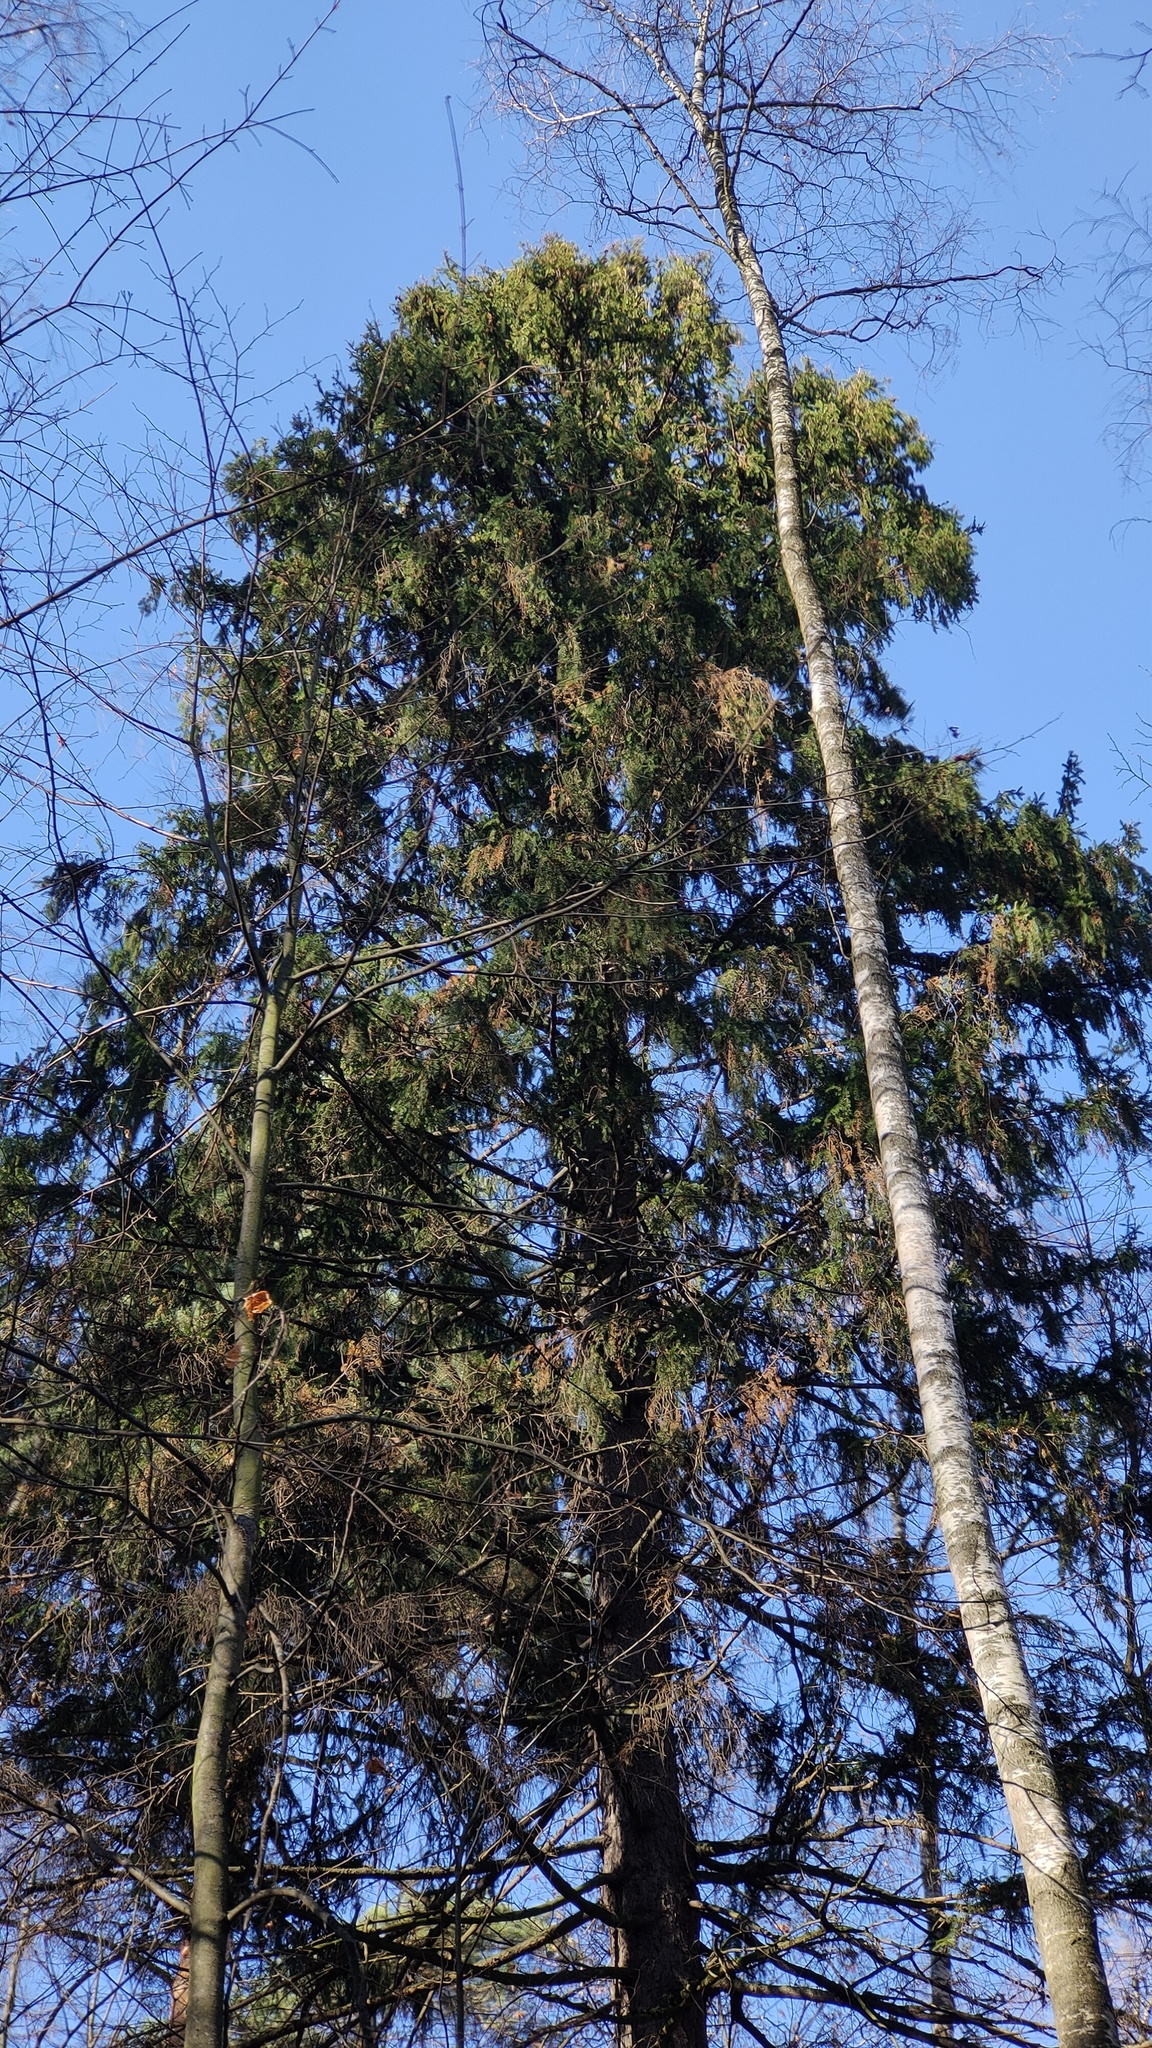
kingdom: Plantae
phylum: Tracheophyta
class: Pinopsida
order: Pinales
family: Pinaceae
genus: Picea
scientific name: Picea abies
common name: Norway spruce
